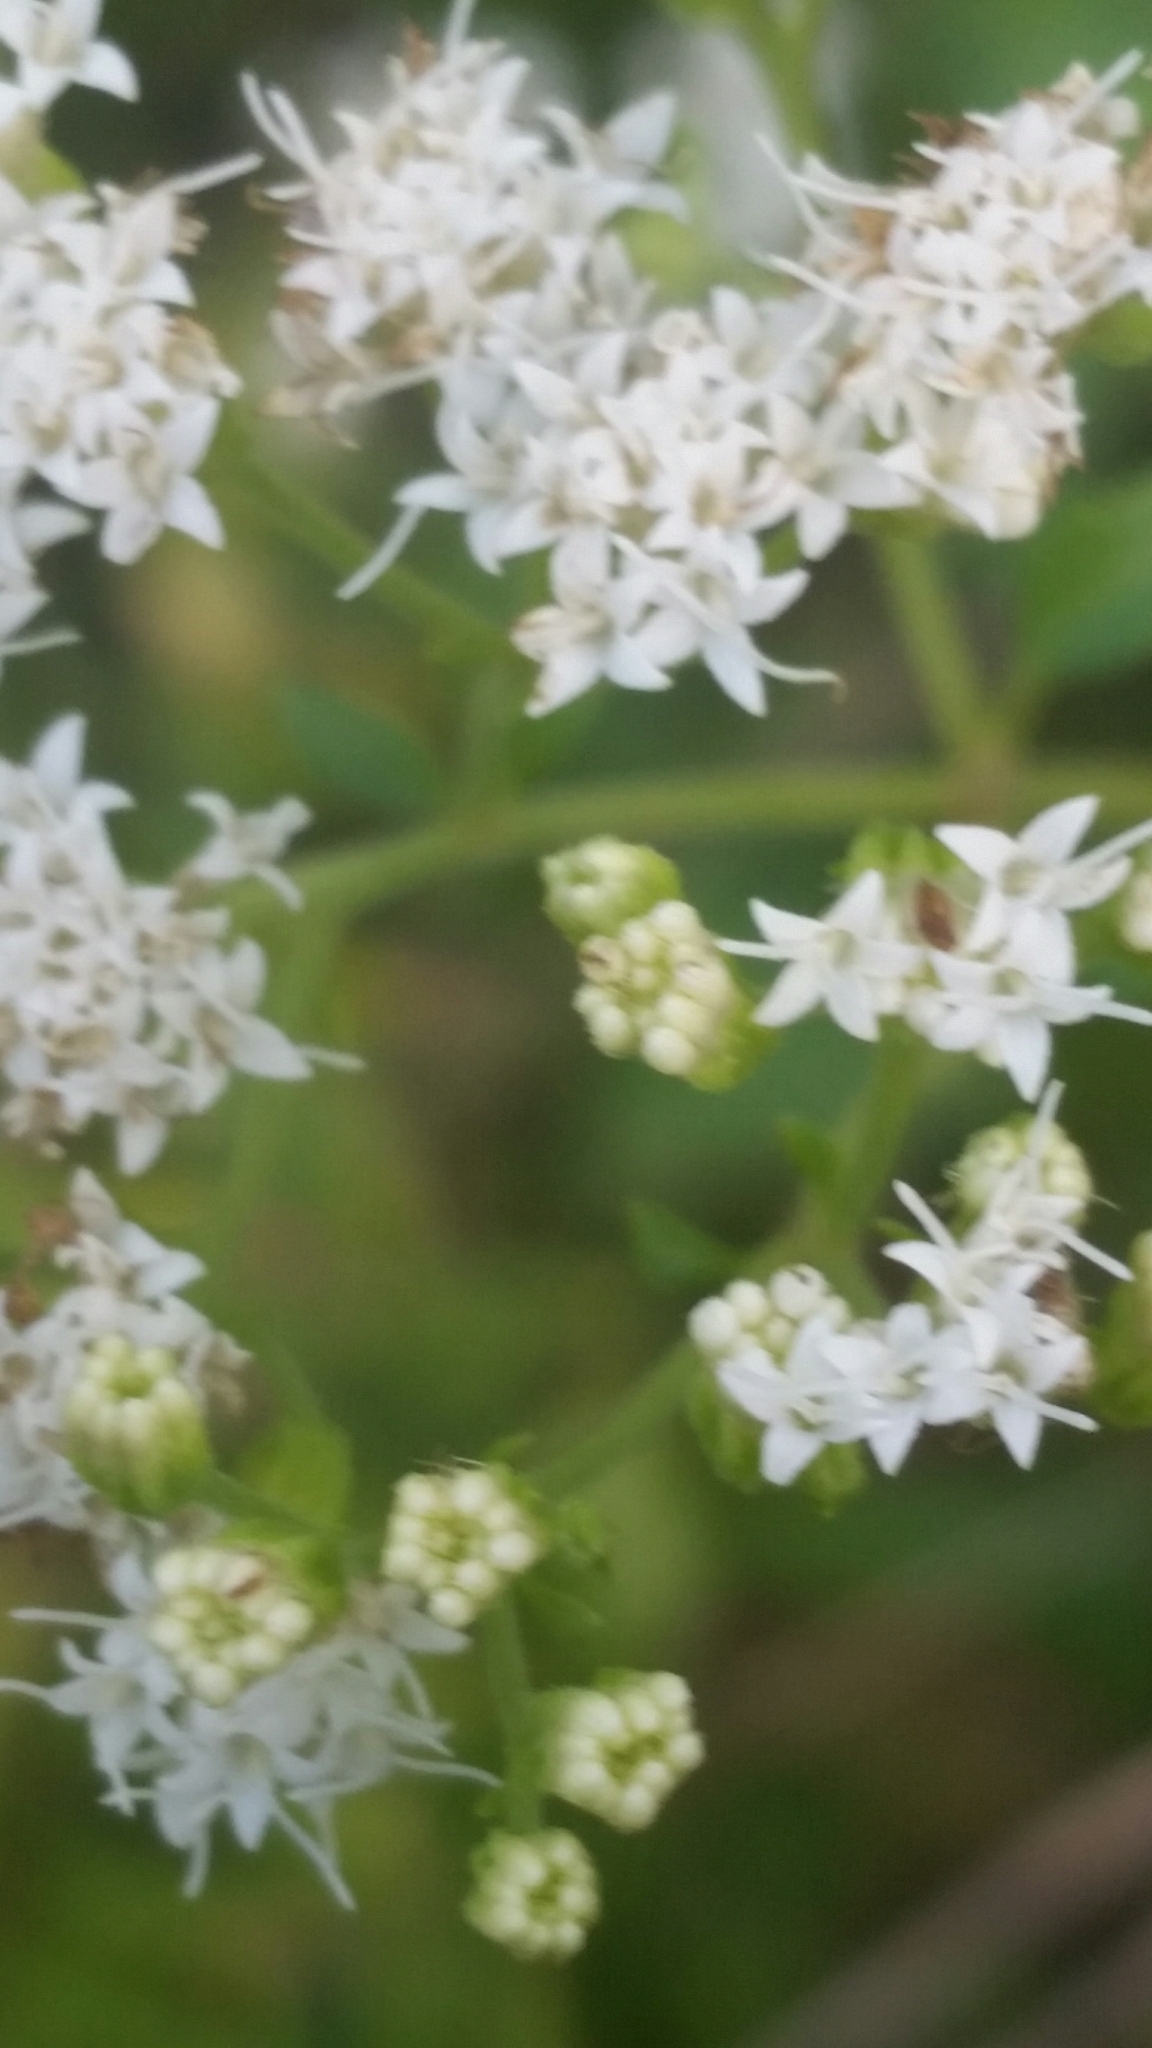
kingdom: Plantae
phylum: Tracheophyta
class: Magnoliopsida
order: Asterales
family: Asteraceae
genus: Ageratina
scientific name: Ageratina jucunda
